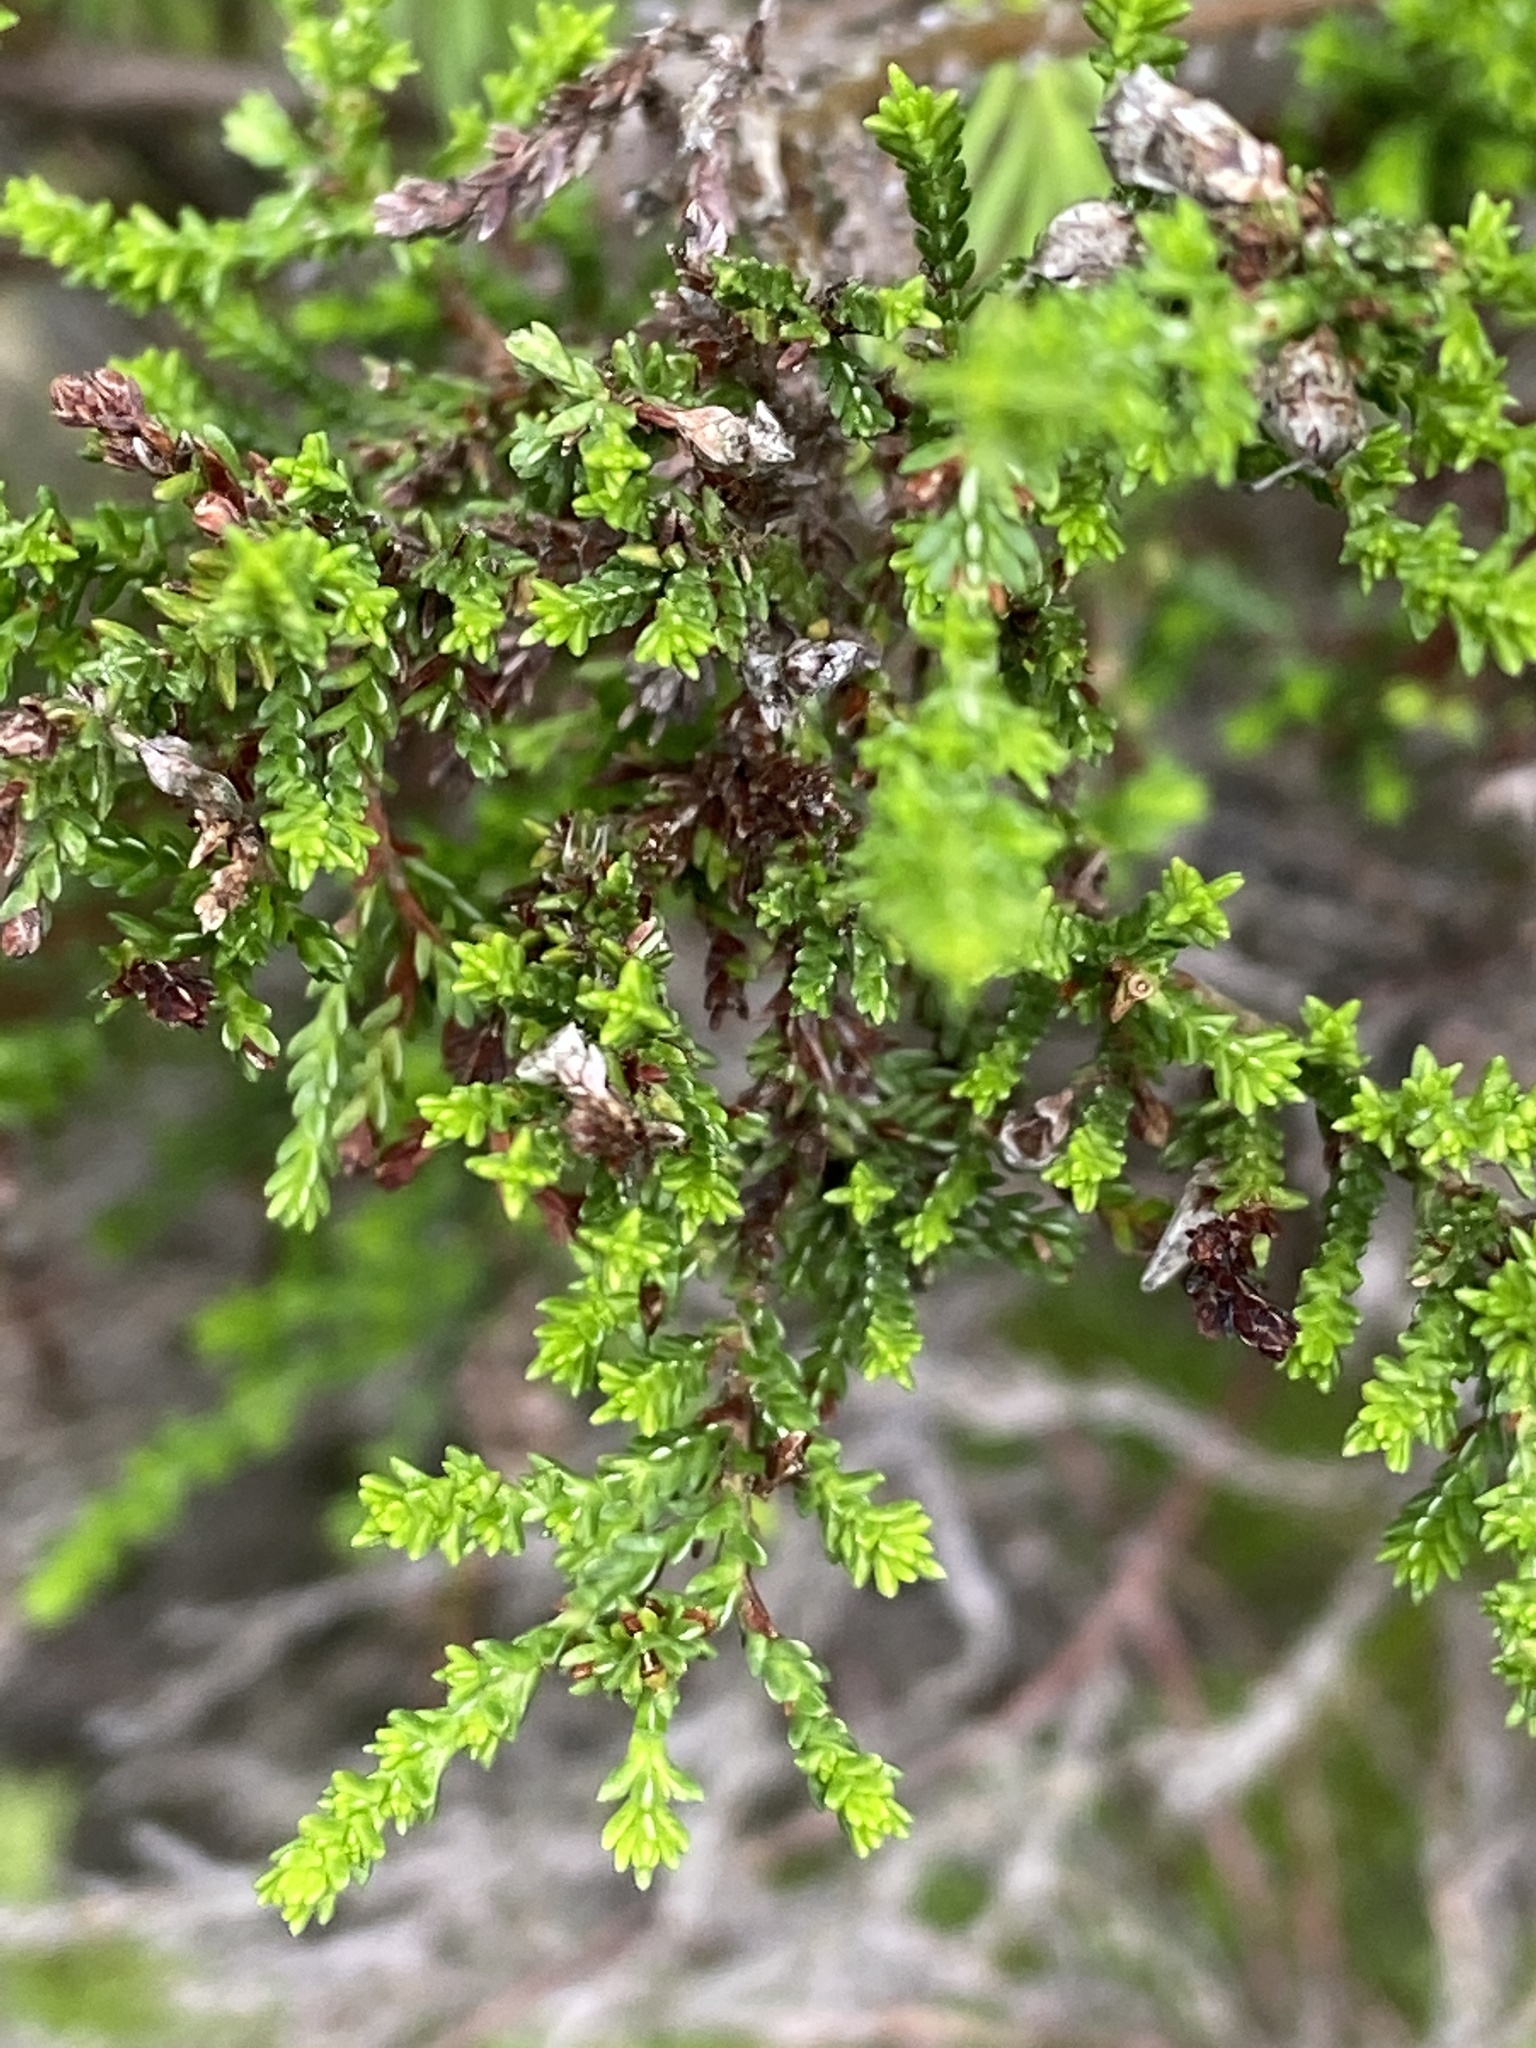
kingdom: Plantae
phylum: Tracheophyta
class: Magnoliopsida
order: Ericales
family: Ericaceae
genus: Calluna
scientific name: Calluna vulgaris
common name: Heather
